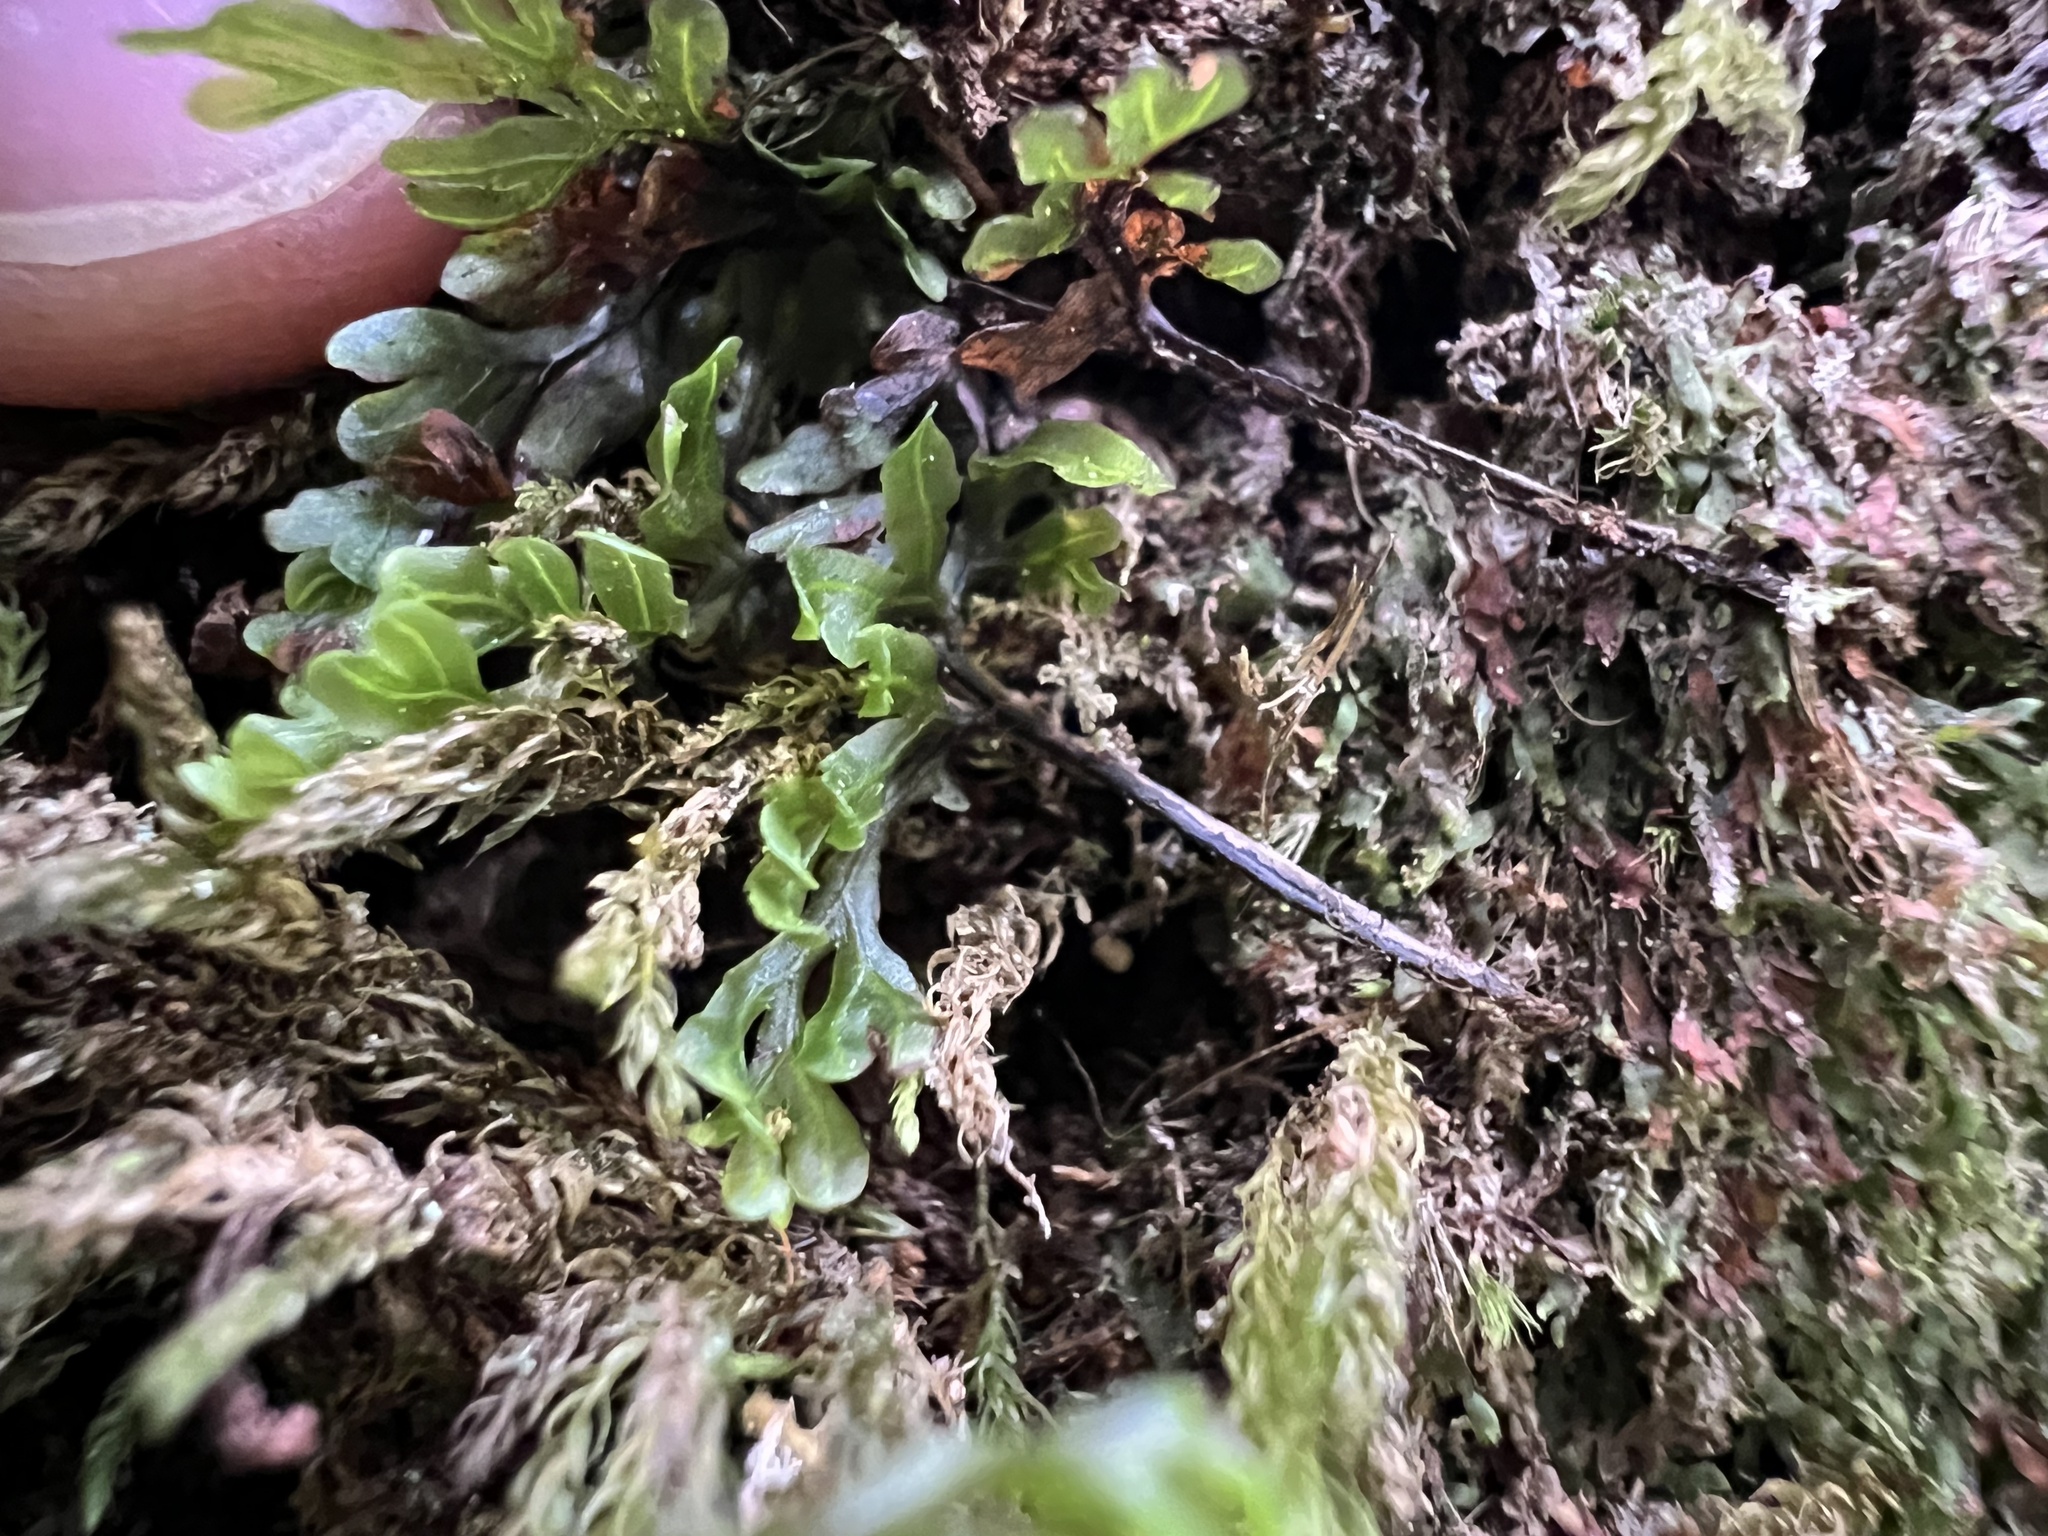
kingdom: Plantae
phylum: Tracheophyta
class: Polypodiopsida
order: Hymenophyllales
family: Hymenophyllaceae
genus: Hymenophyllum
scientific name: Hymenophyllum sanguinolentum
